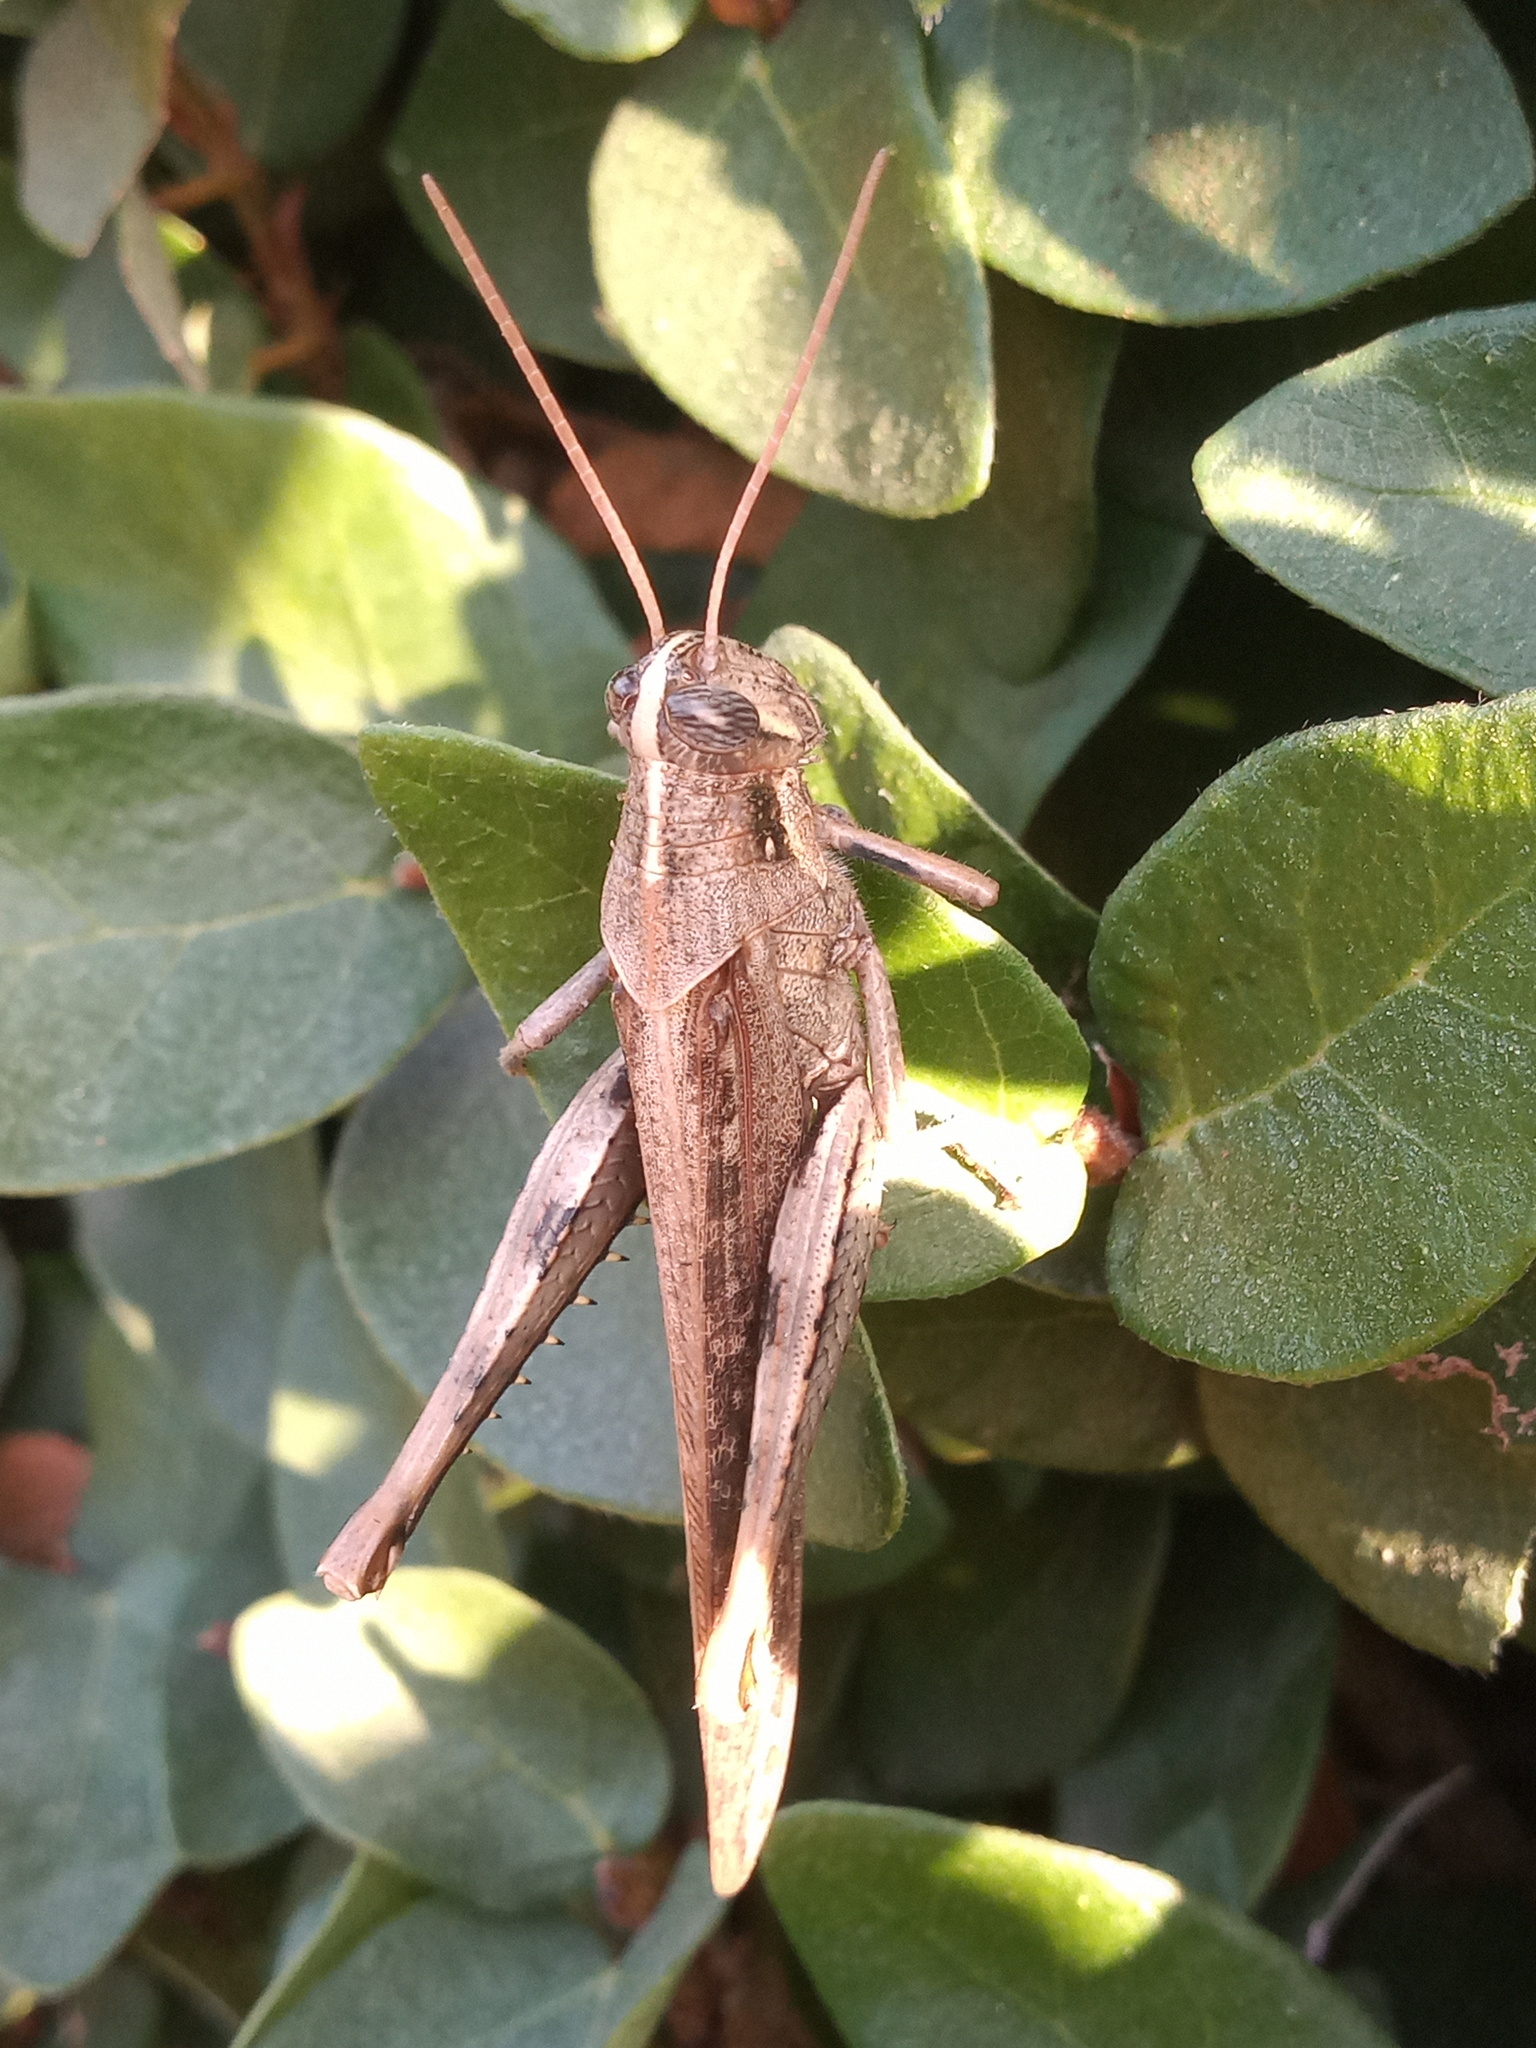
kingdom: Animalia
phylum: Arthropoda
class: Insecta
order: Orthoptera
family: Acrididae
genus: Schistocerca
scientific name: Schistocerca nitens
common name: Vagrant grasshopper
